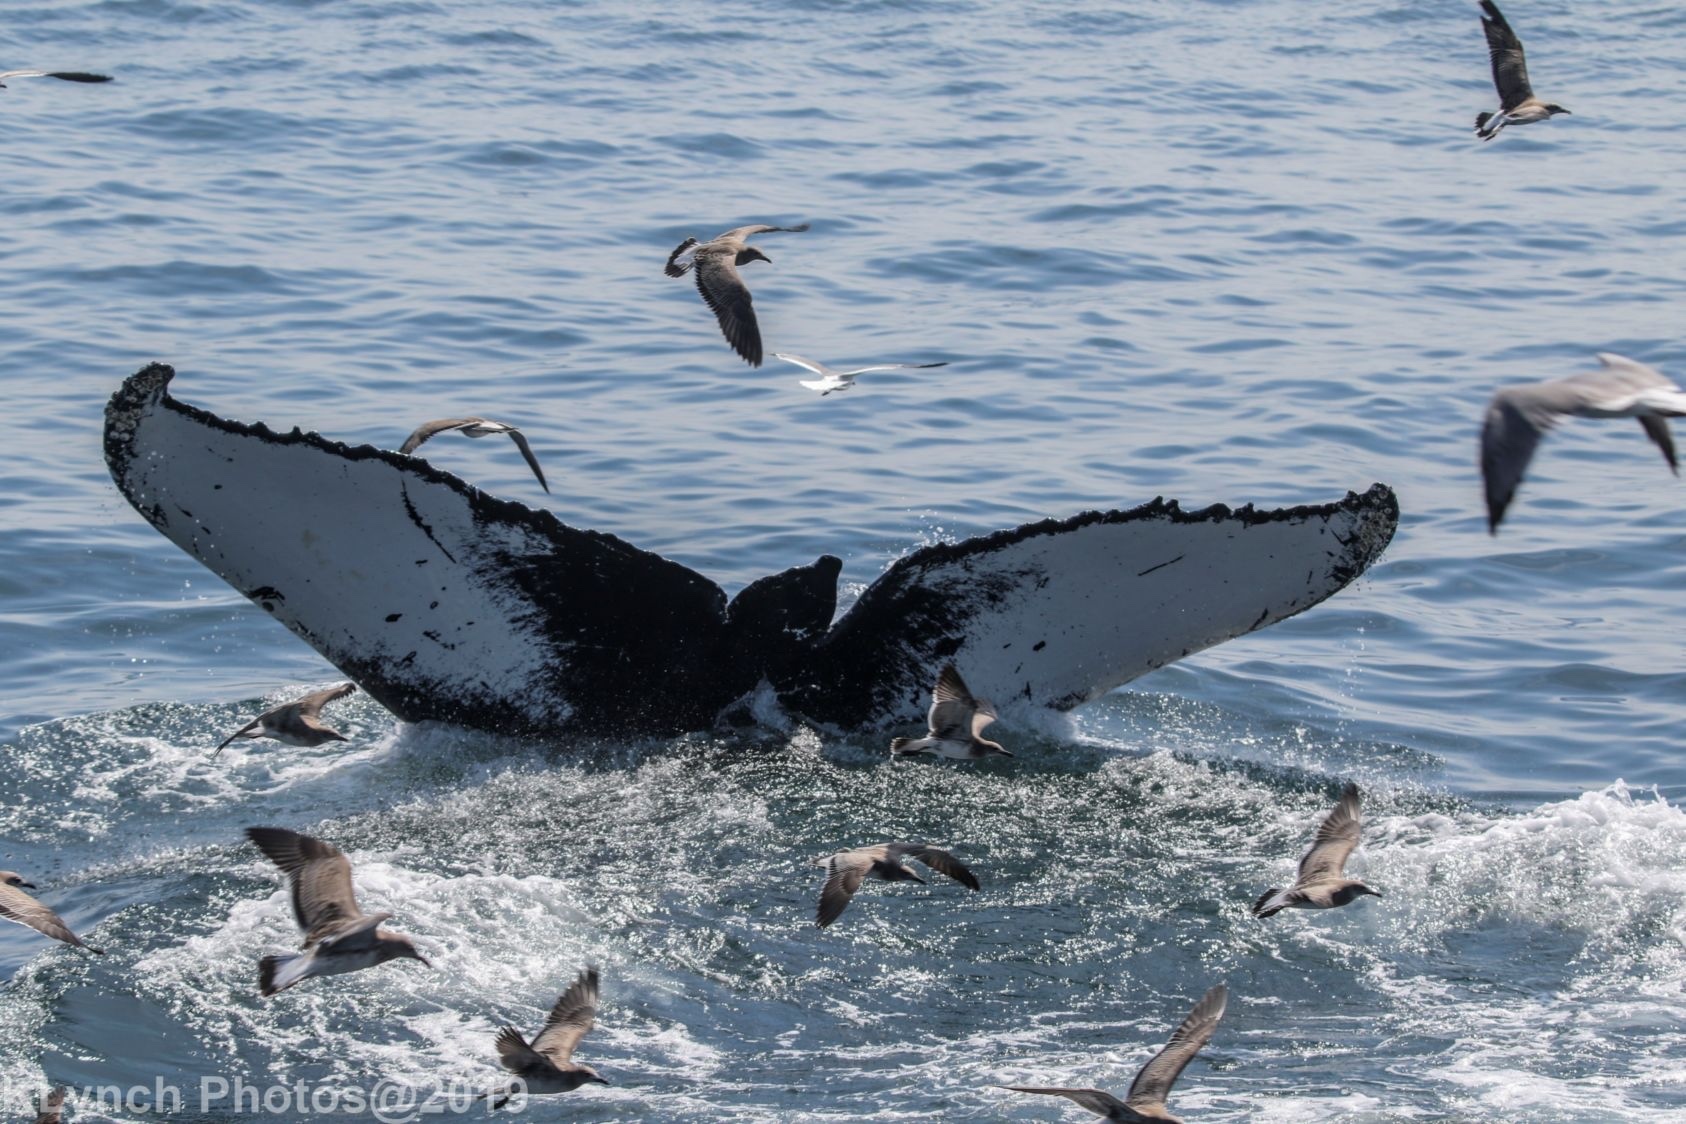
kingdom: Animalia
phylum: Chordata
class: Mammalia
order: Cetacea
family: Balaenopteridae
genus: Megaptera
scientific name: Megaptera novaeangliae
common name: Humpback whale
